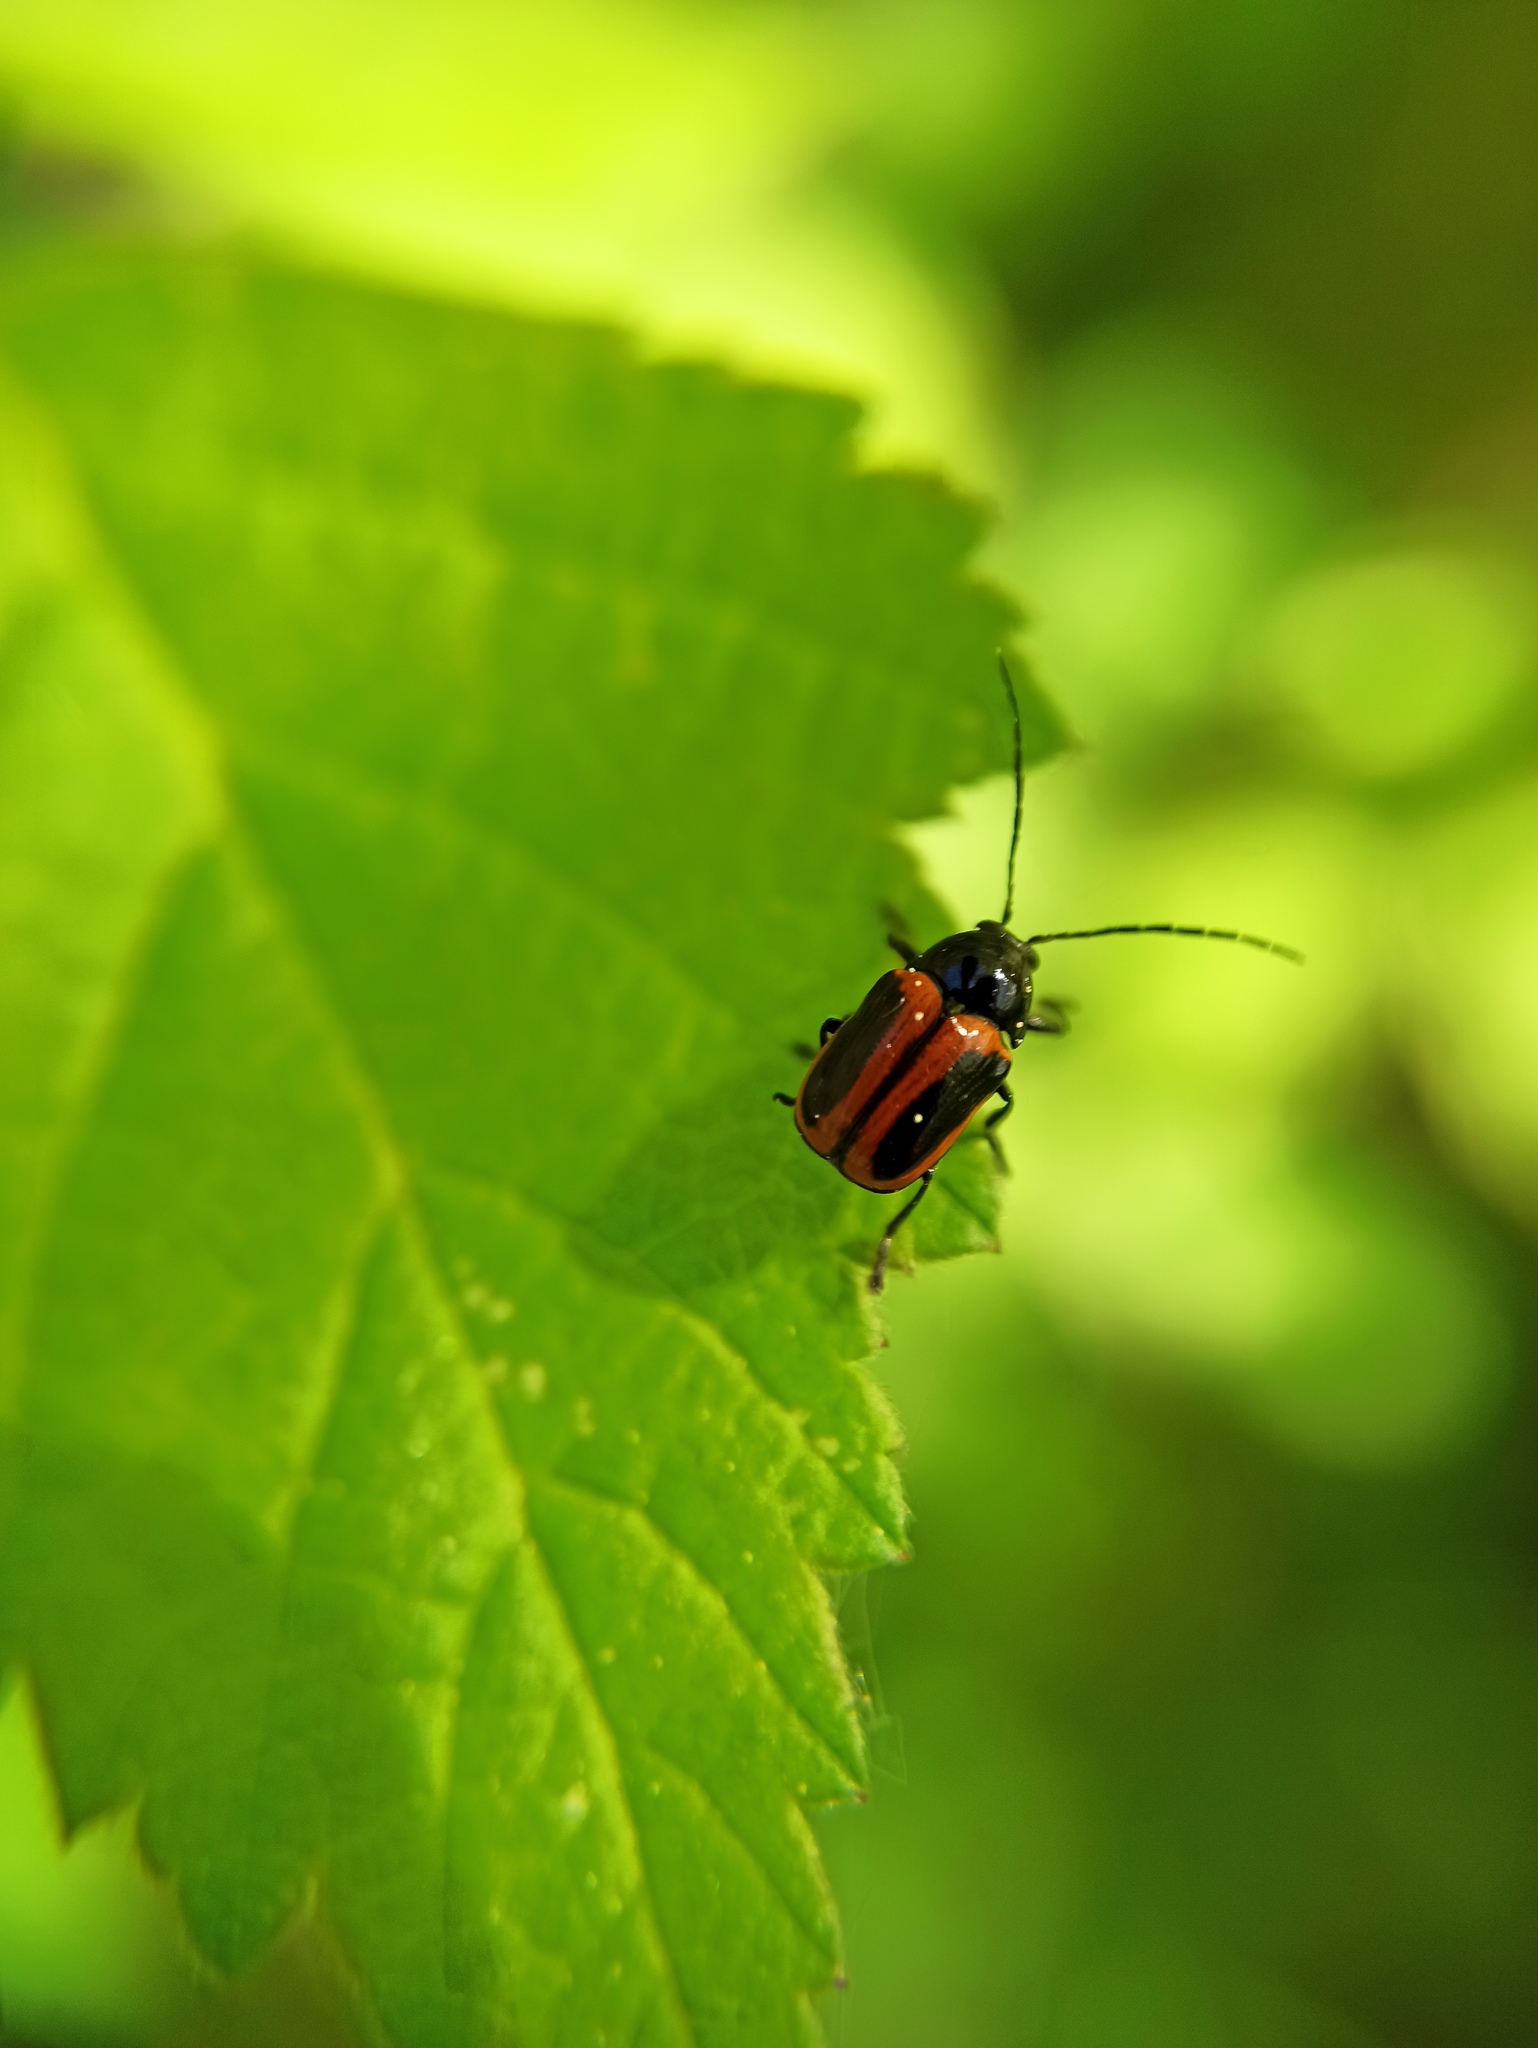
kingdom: Animalia
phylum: Arthropoda
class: Insecta
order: Coleoptera
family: Chrysomelidae
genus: Chiridopsis
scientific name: Chiridopsis bipunctata
